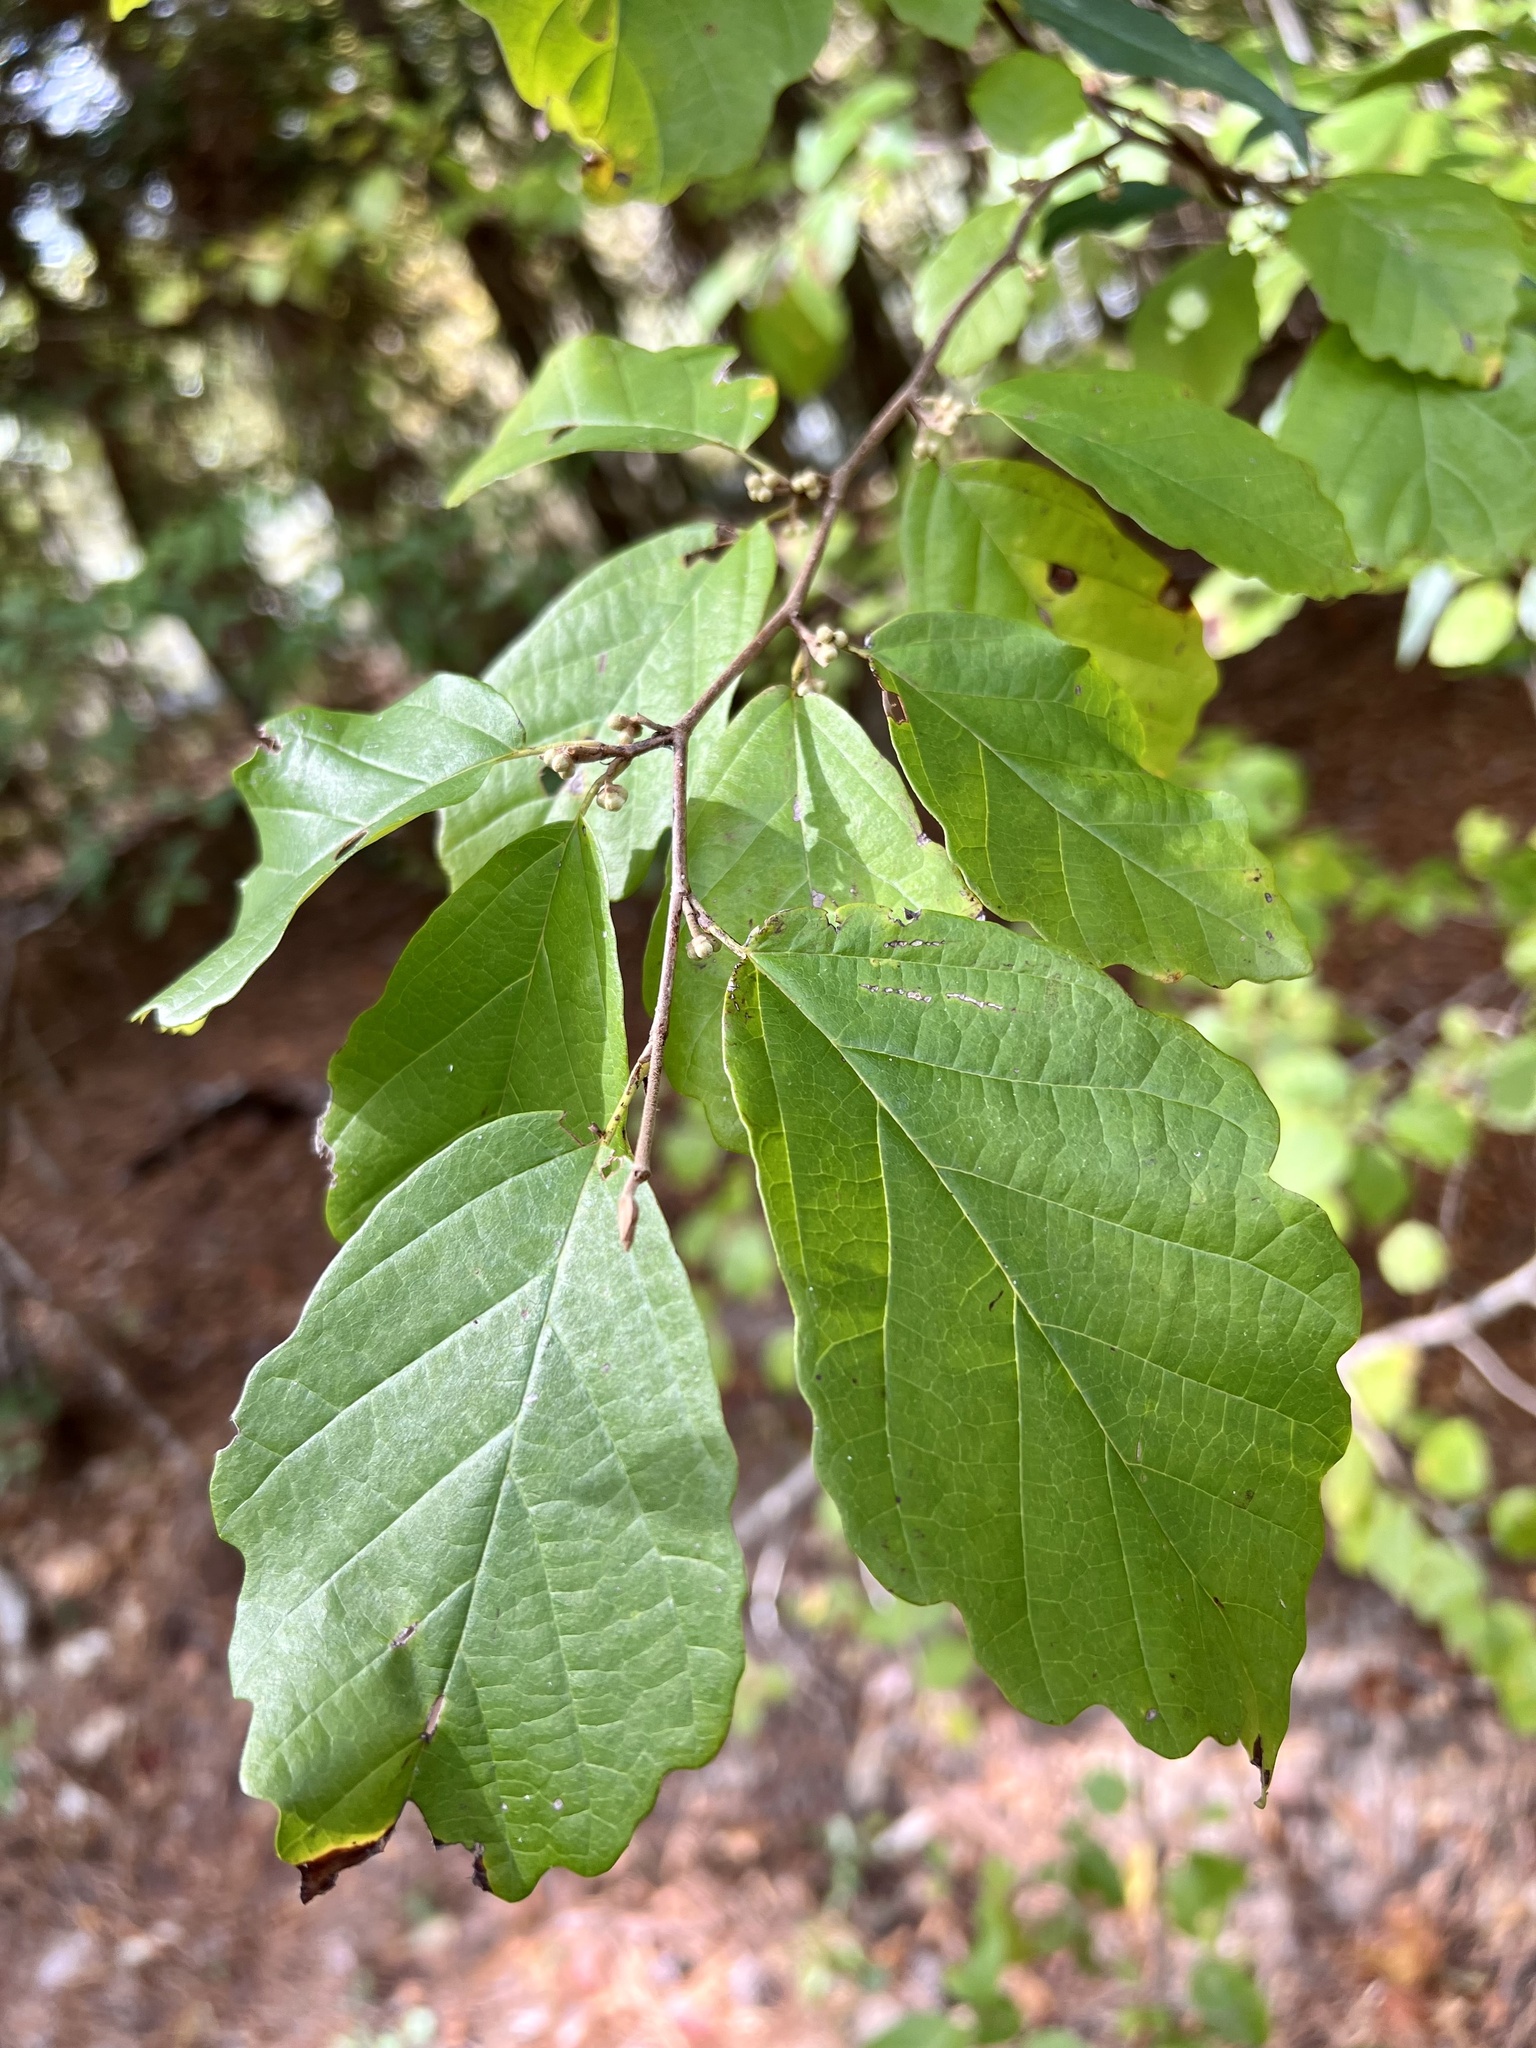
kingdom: Plantae
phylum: Tracheophyta
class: Magnoliopsida
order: Saxifragales
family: Hamamelidaceae
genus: Hamamelis
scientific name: Hamamelis virginiana
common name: Witch-hazel
